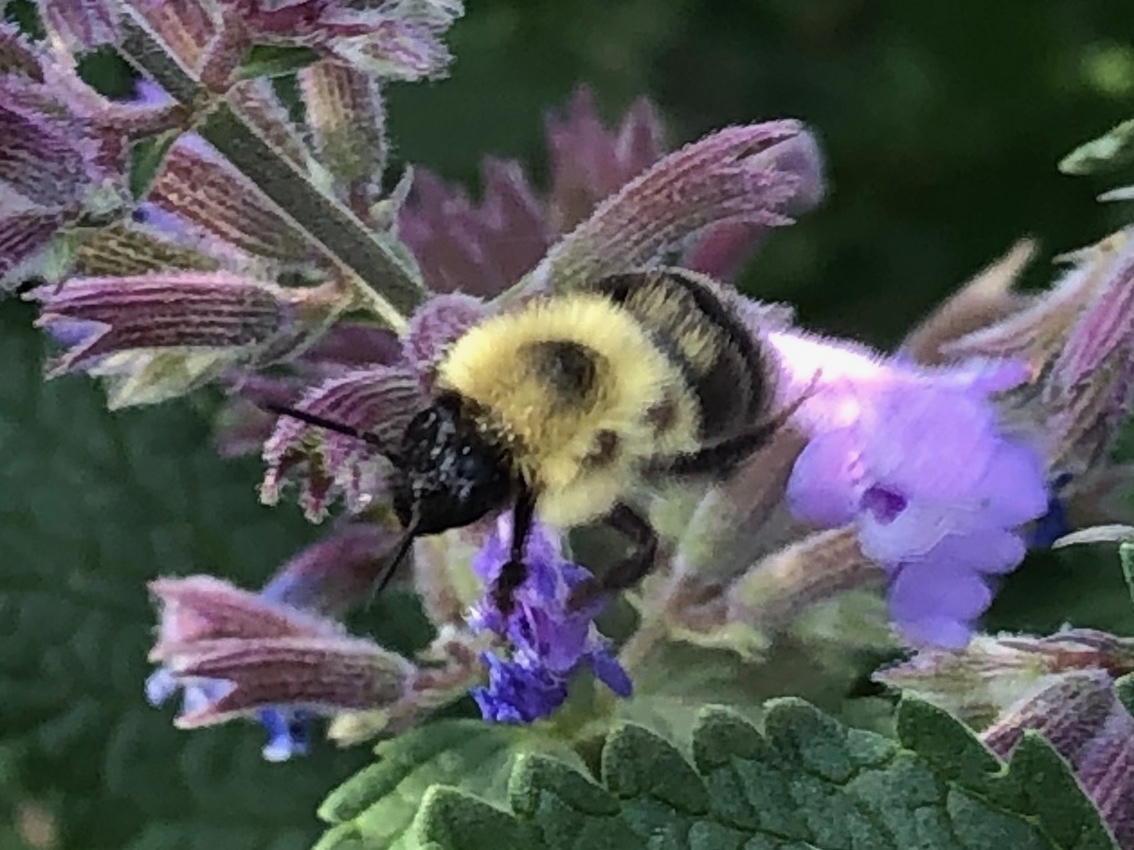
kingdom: Animalia
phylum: Arthropoda
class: Insecta
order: Hymenoptera
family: Apidae
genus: Bombus
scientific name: Bombus bimaculatus
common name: Two-spotted bumble bee
